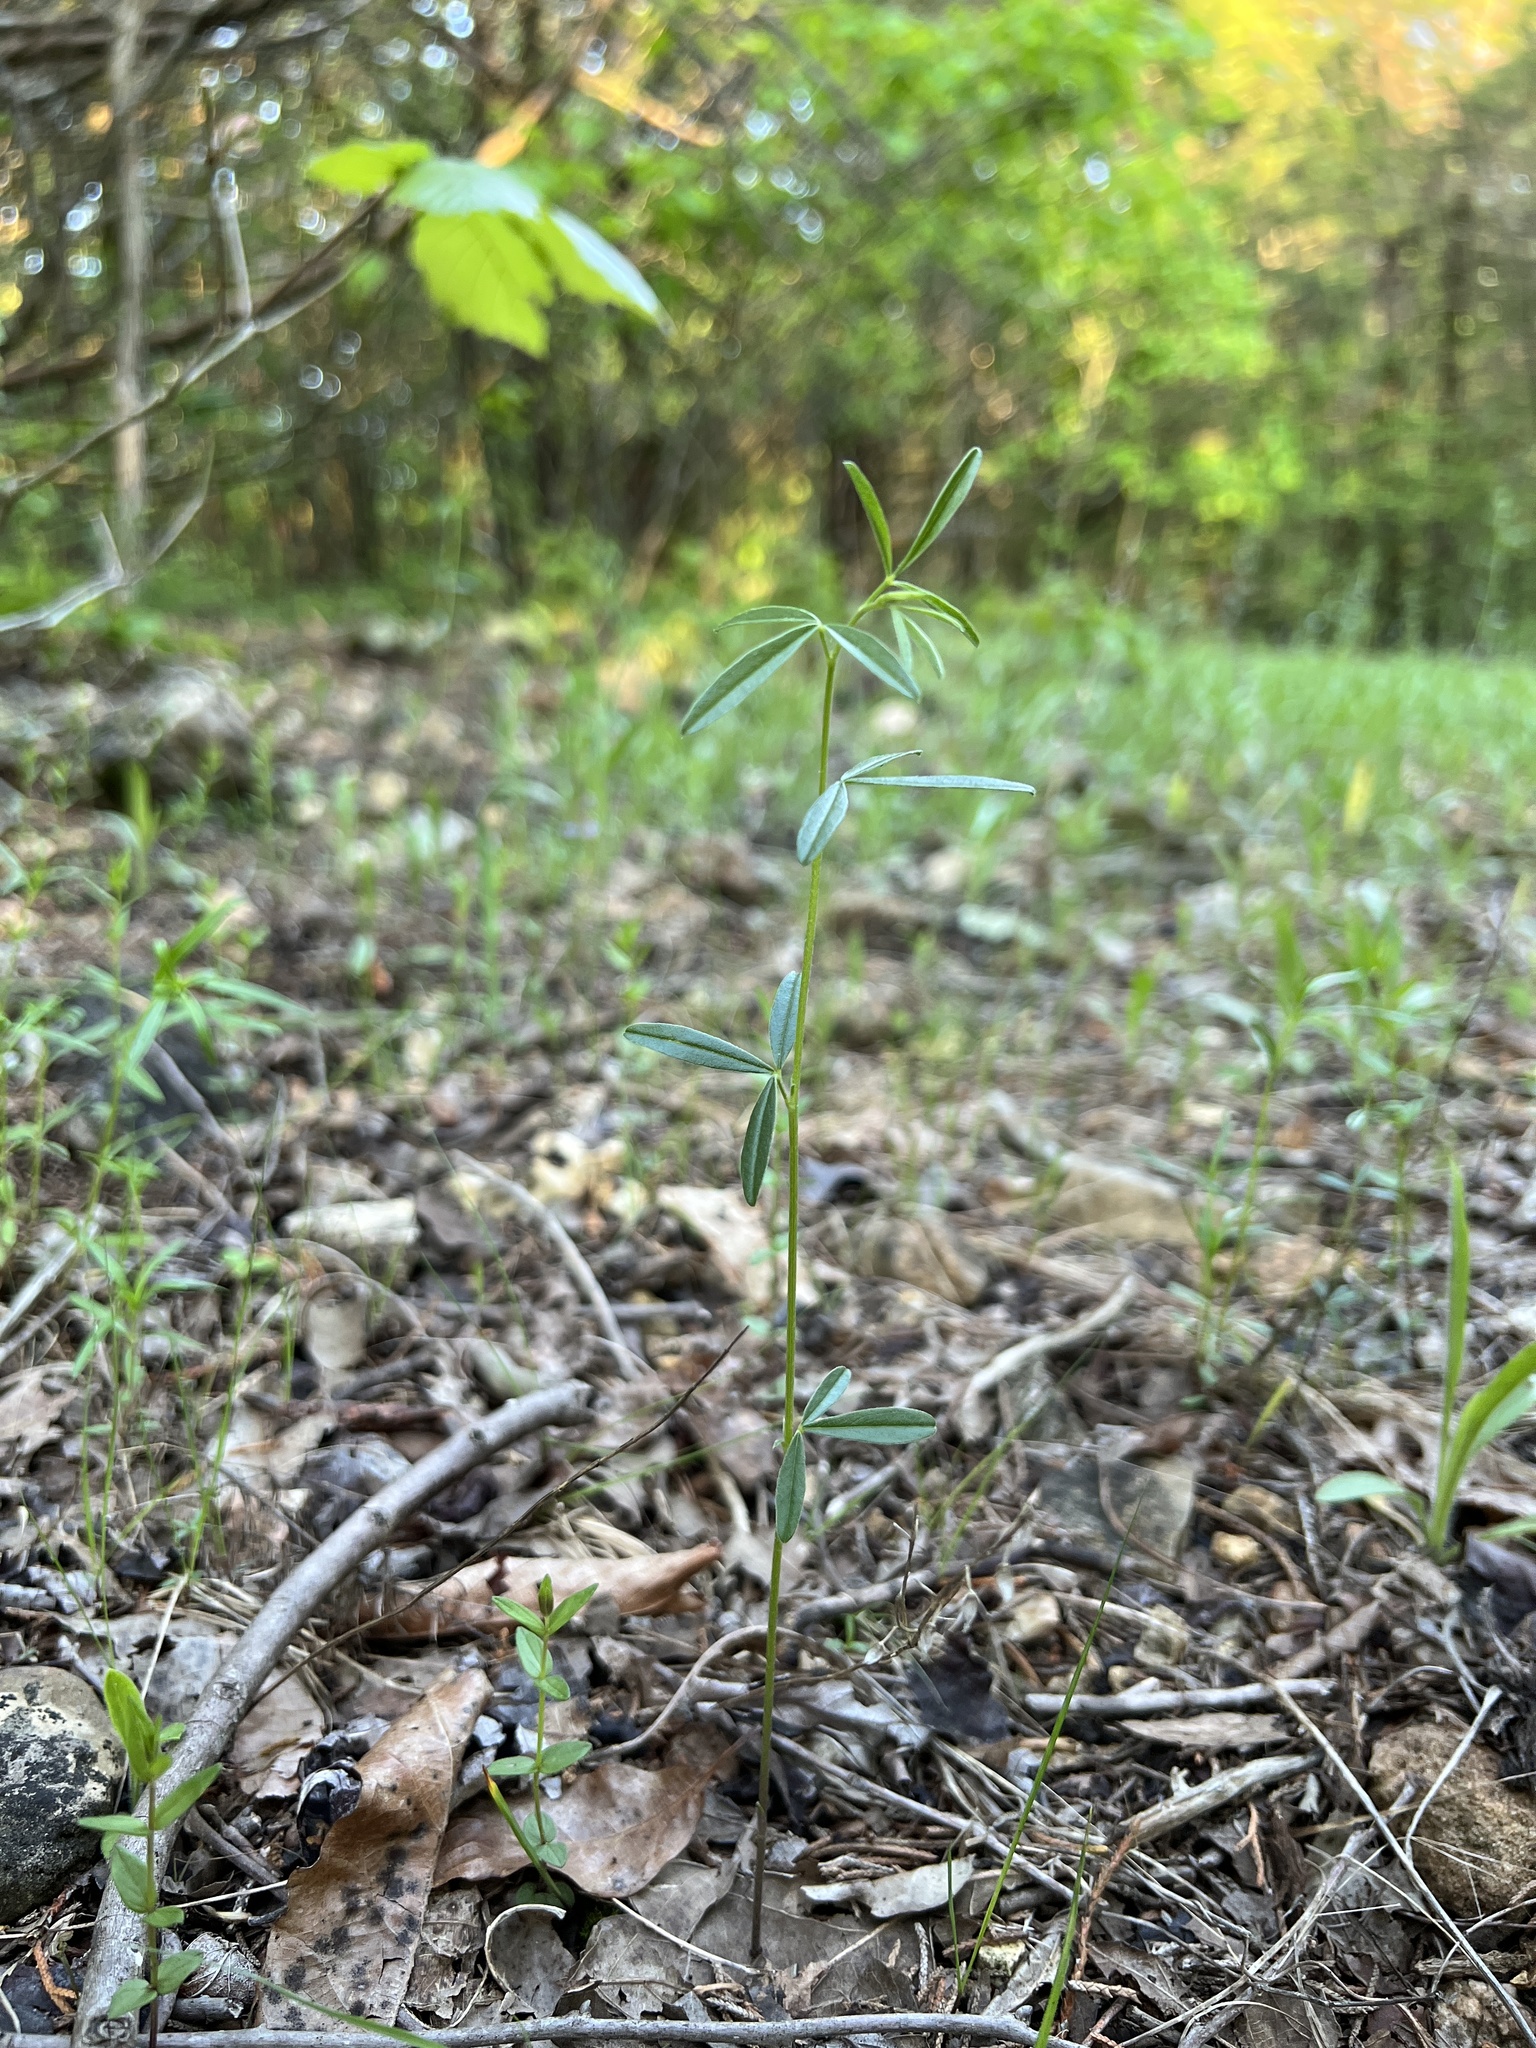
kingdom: Plantae
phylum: Tracheophyta
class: Magnoliopsida
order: Fabales
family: Fabaceae
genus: Pediomelum
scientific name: Pediomelum tenuiflorum
